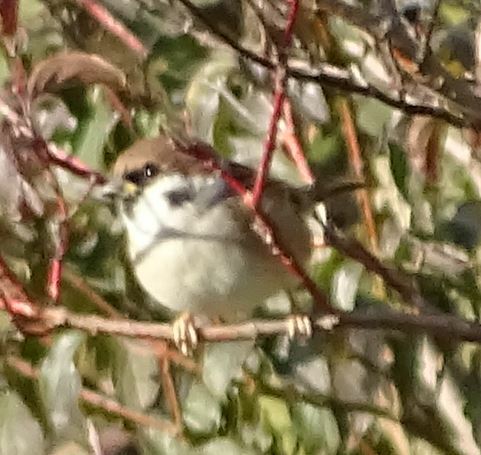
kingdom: Animalia
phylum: Chordata
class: Aves
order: Passeriformes
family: Passeridae
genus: Passer
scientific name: Passer montanus
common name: Eurasian tree sparrow
